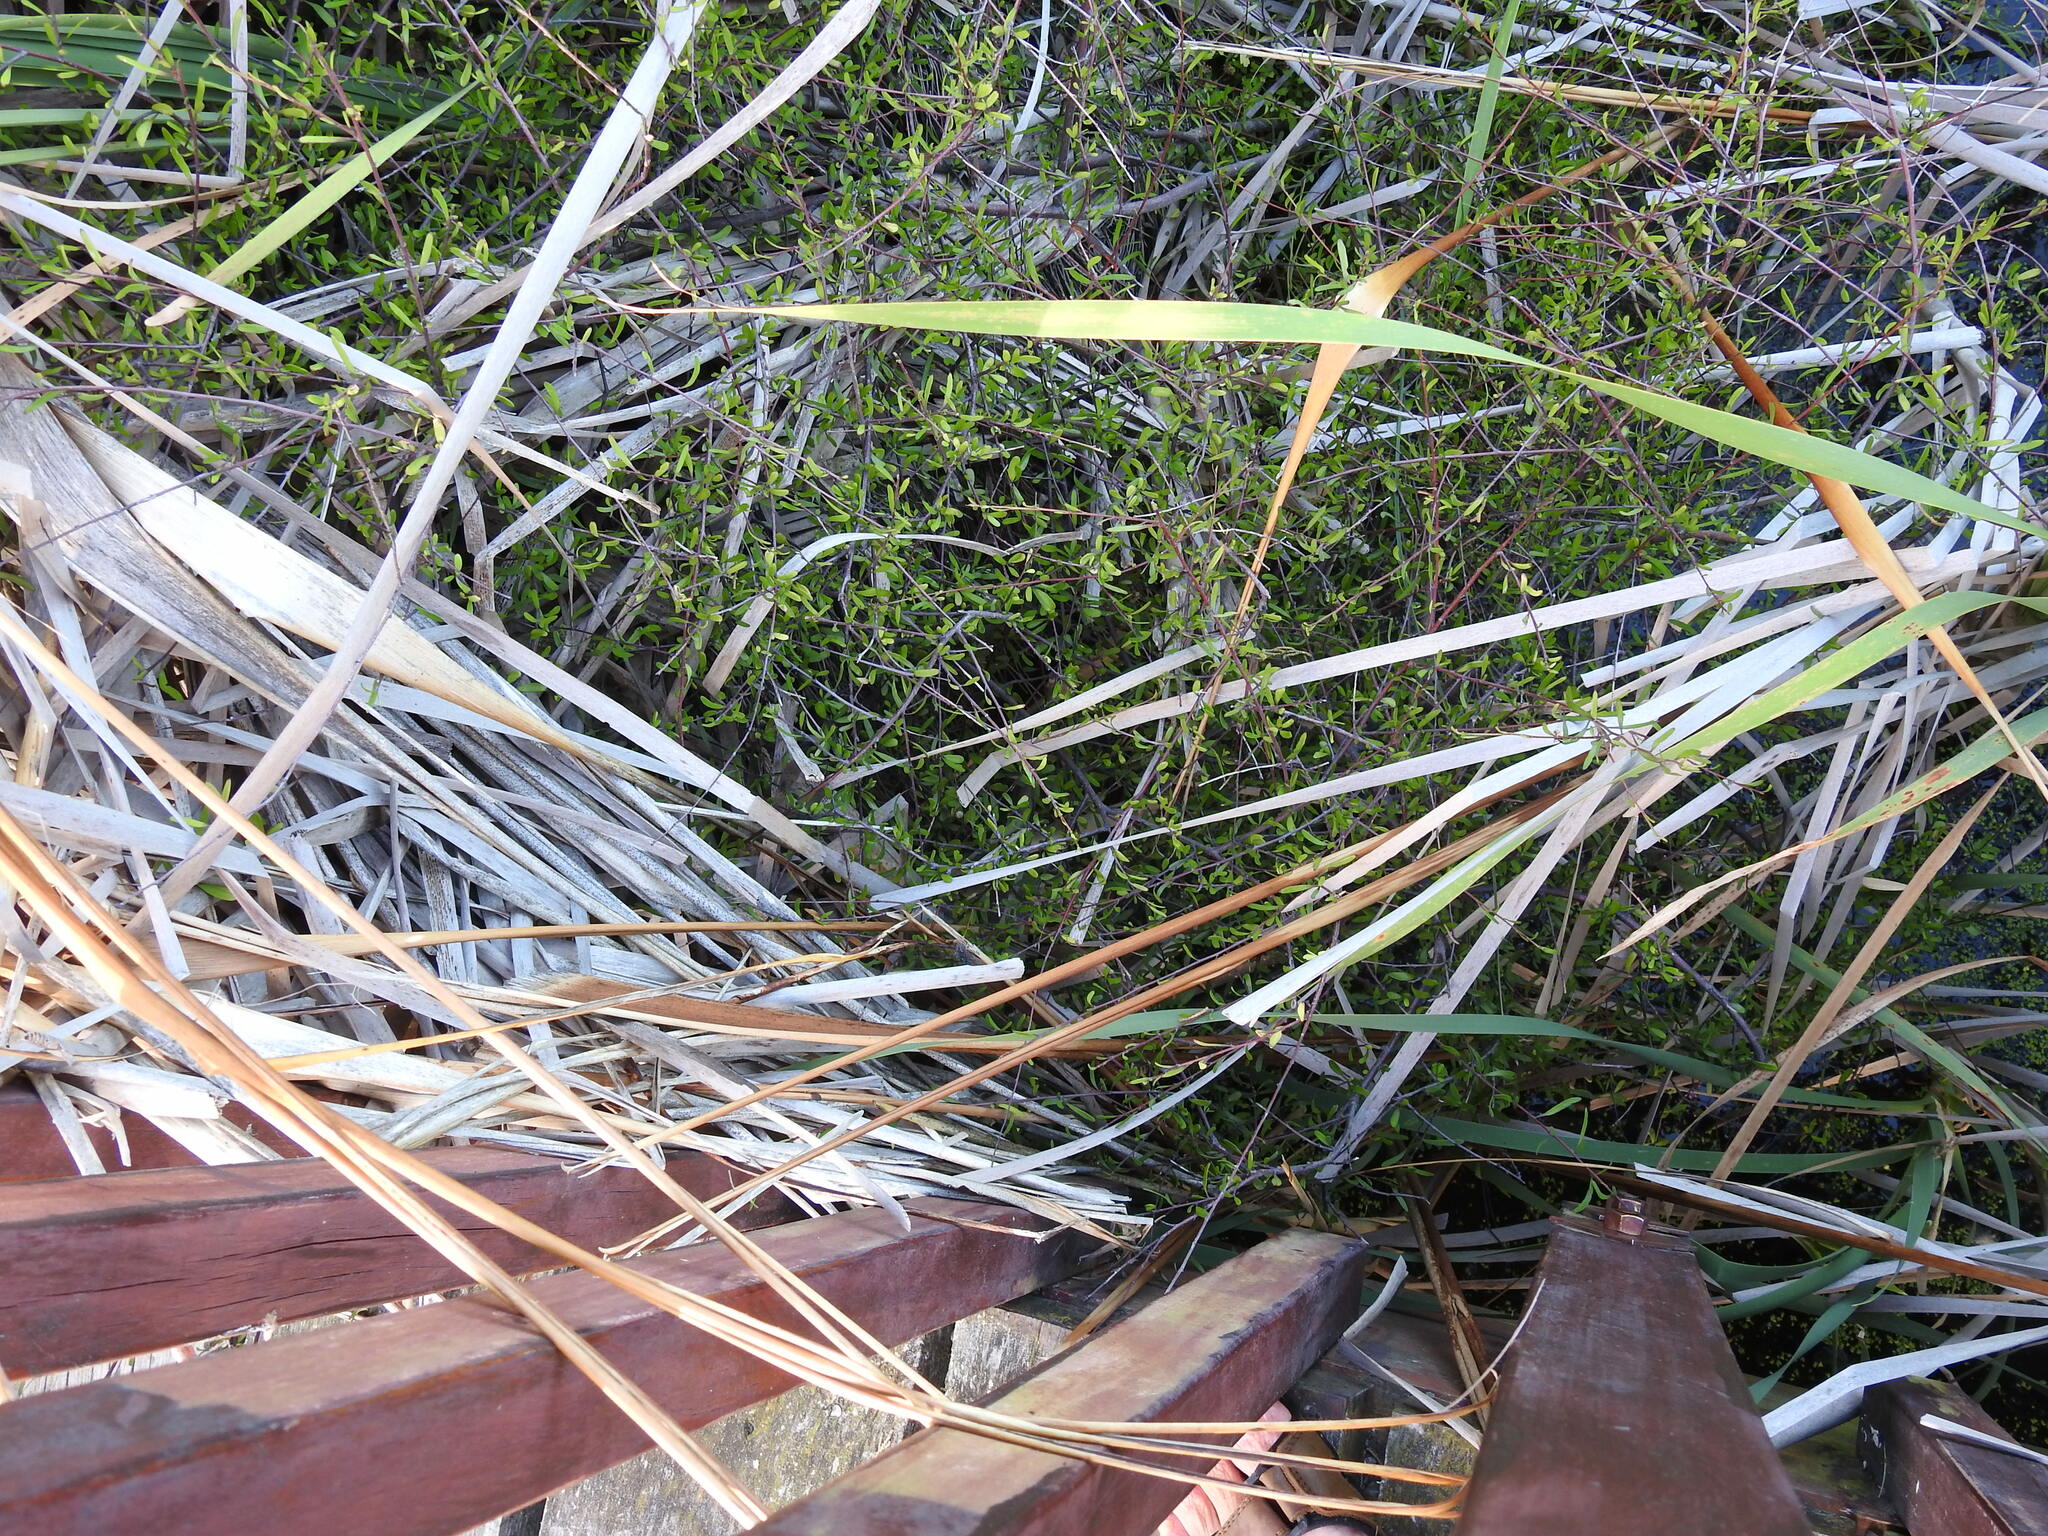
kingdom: Plantae
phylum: Tracheophyta
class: Magnoliopsida
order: Malvales
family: Malvaceae
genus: Plagianthus
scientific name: Plagianthus divaricatus
